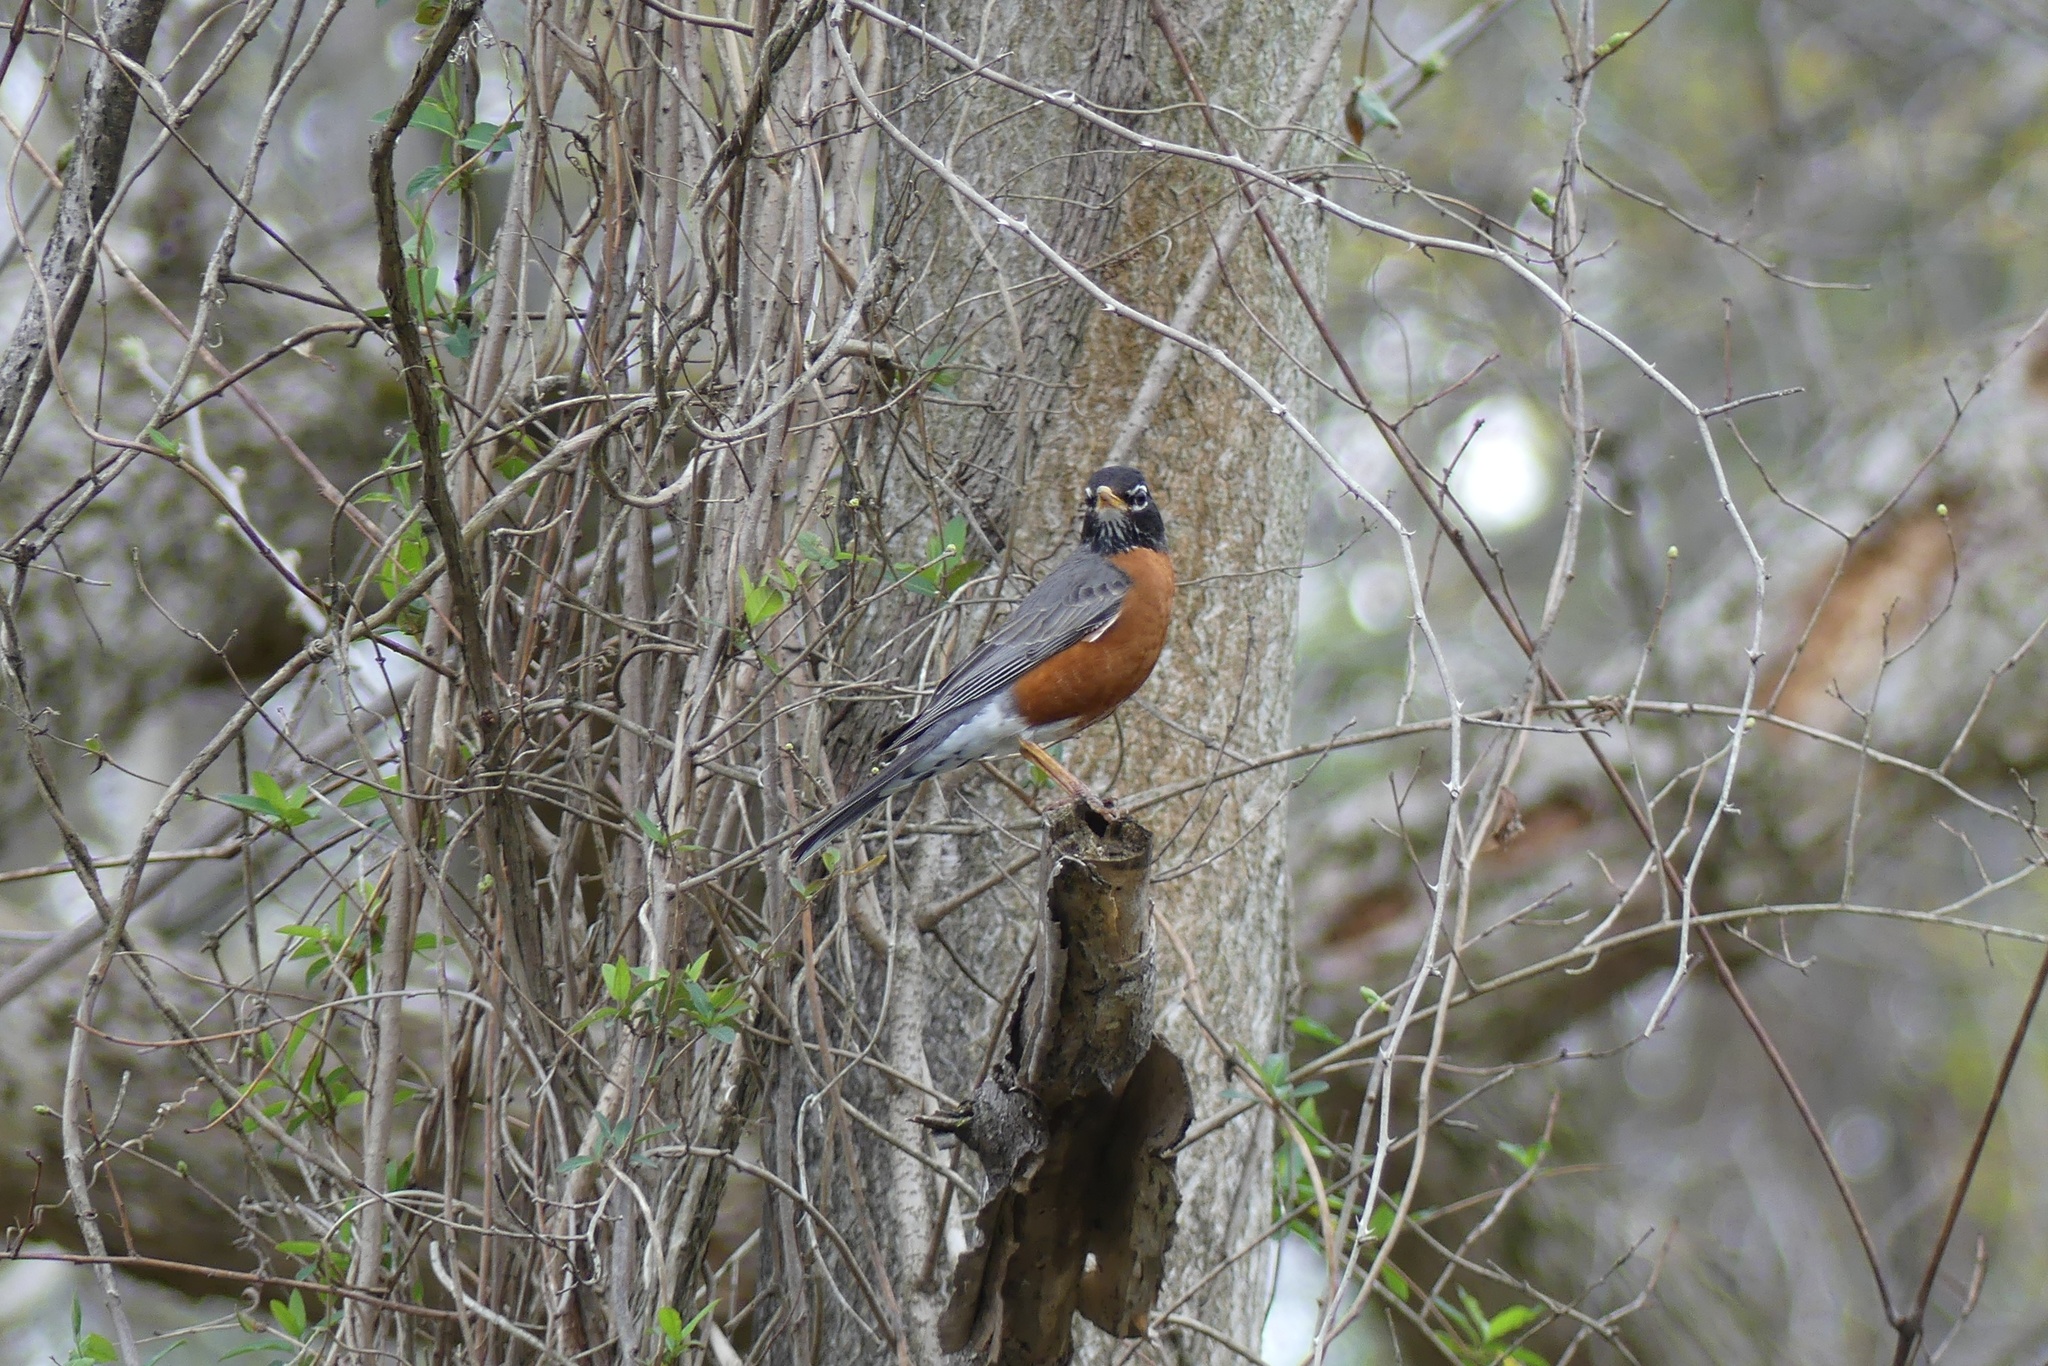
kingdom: Animalia
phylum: Chordata
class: Aves
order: Passeriformes
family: Turdidae
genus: Turdus
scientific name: Turdus migratorius
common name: American robin
